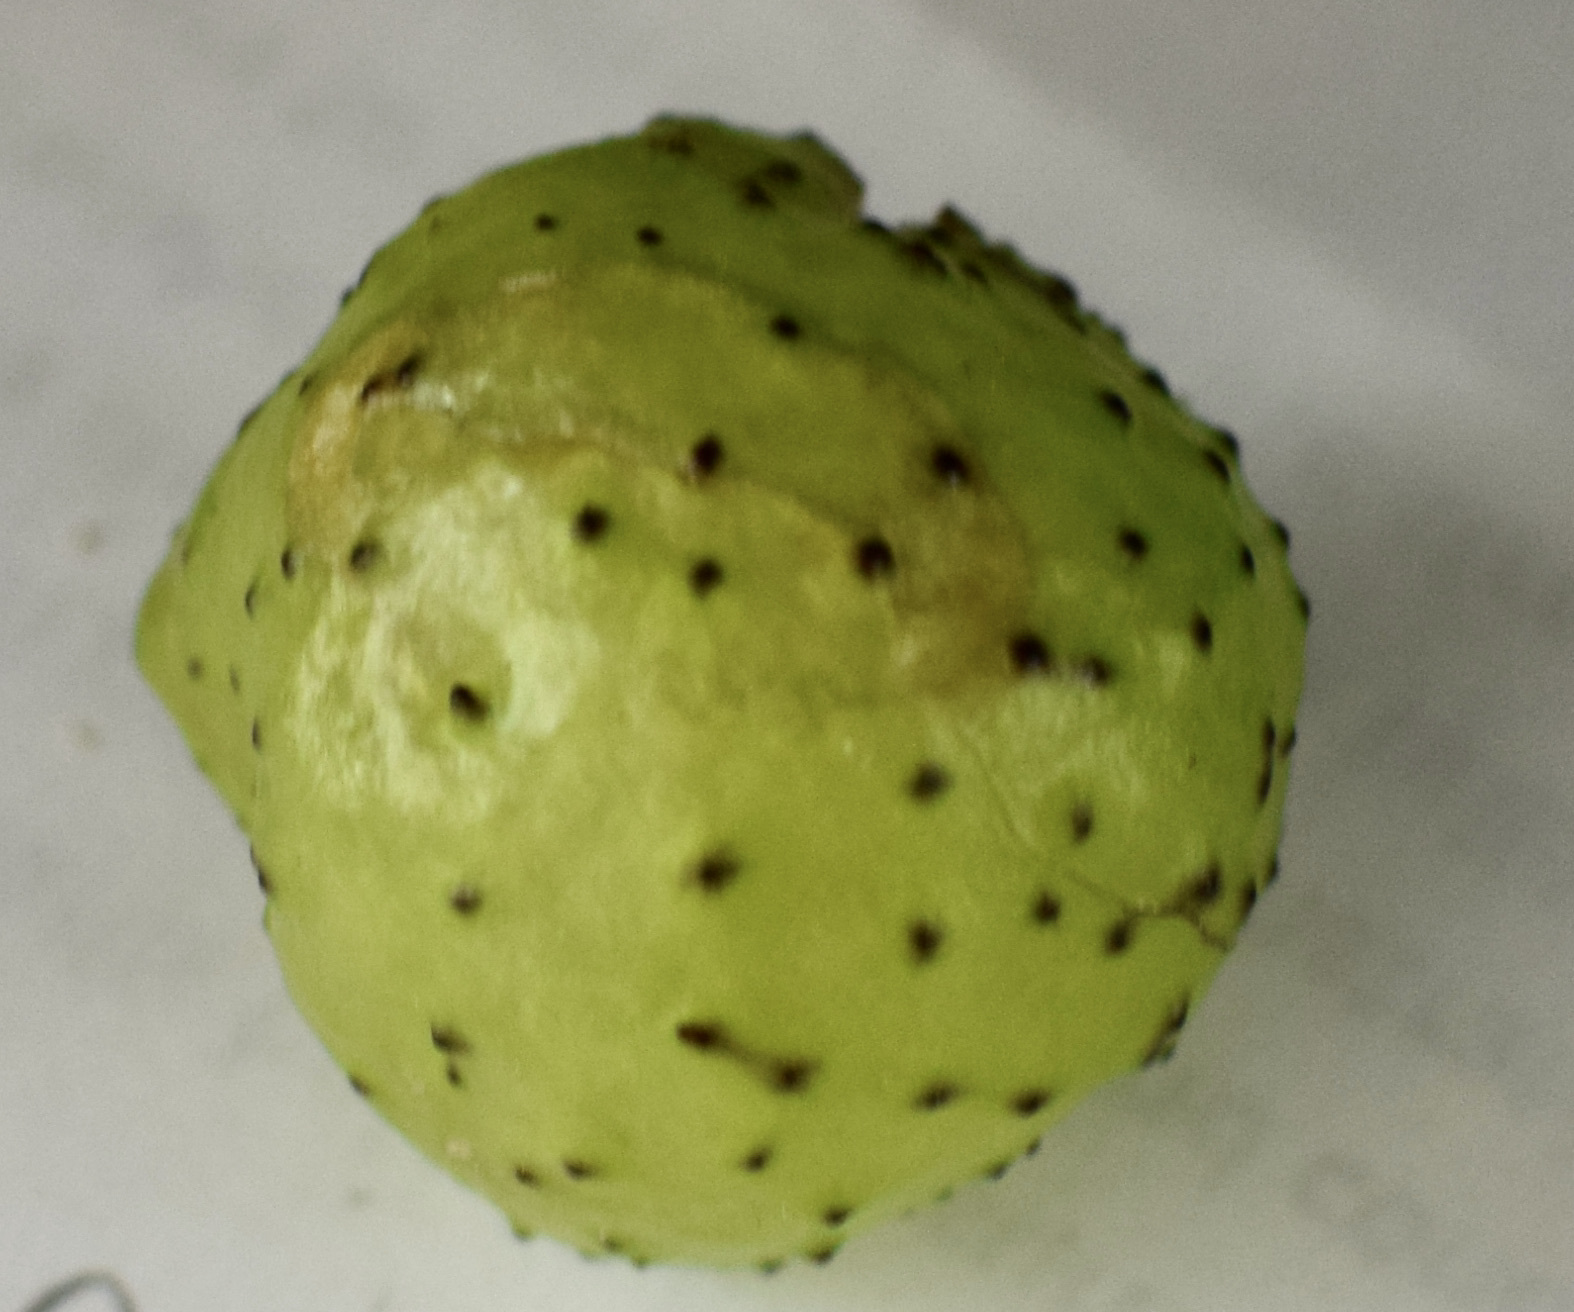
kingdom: Animalia
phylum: Arthropoda
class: Insecta
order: Hymenoptera
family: Cynipidae
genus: Amphibolips
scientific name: Amphibolips
